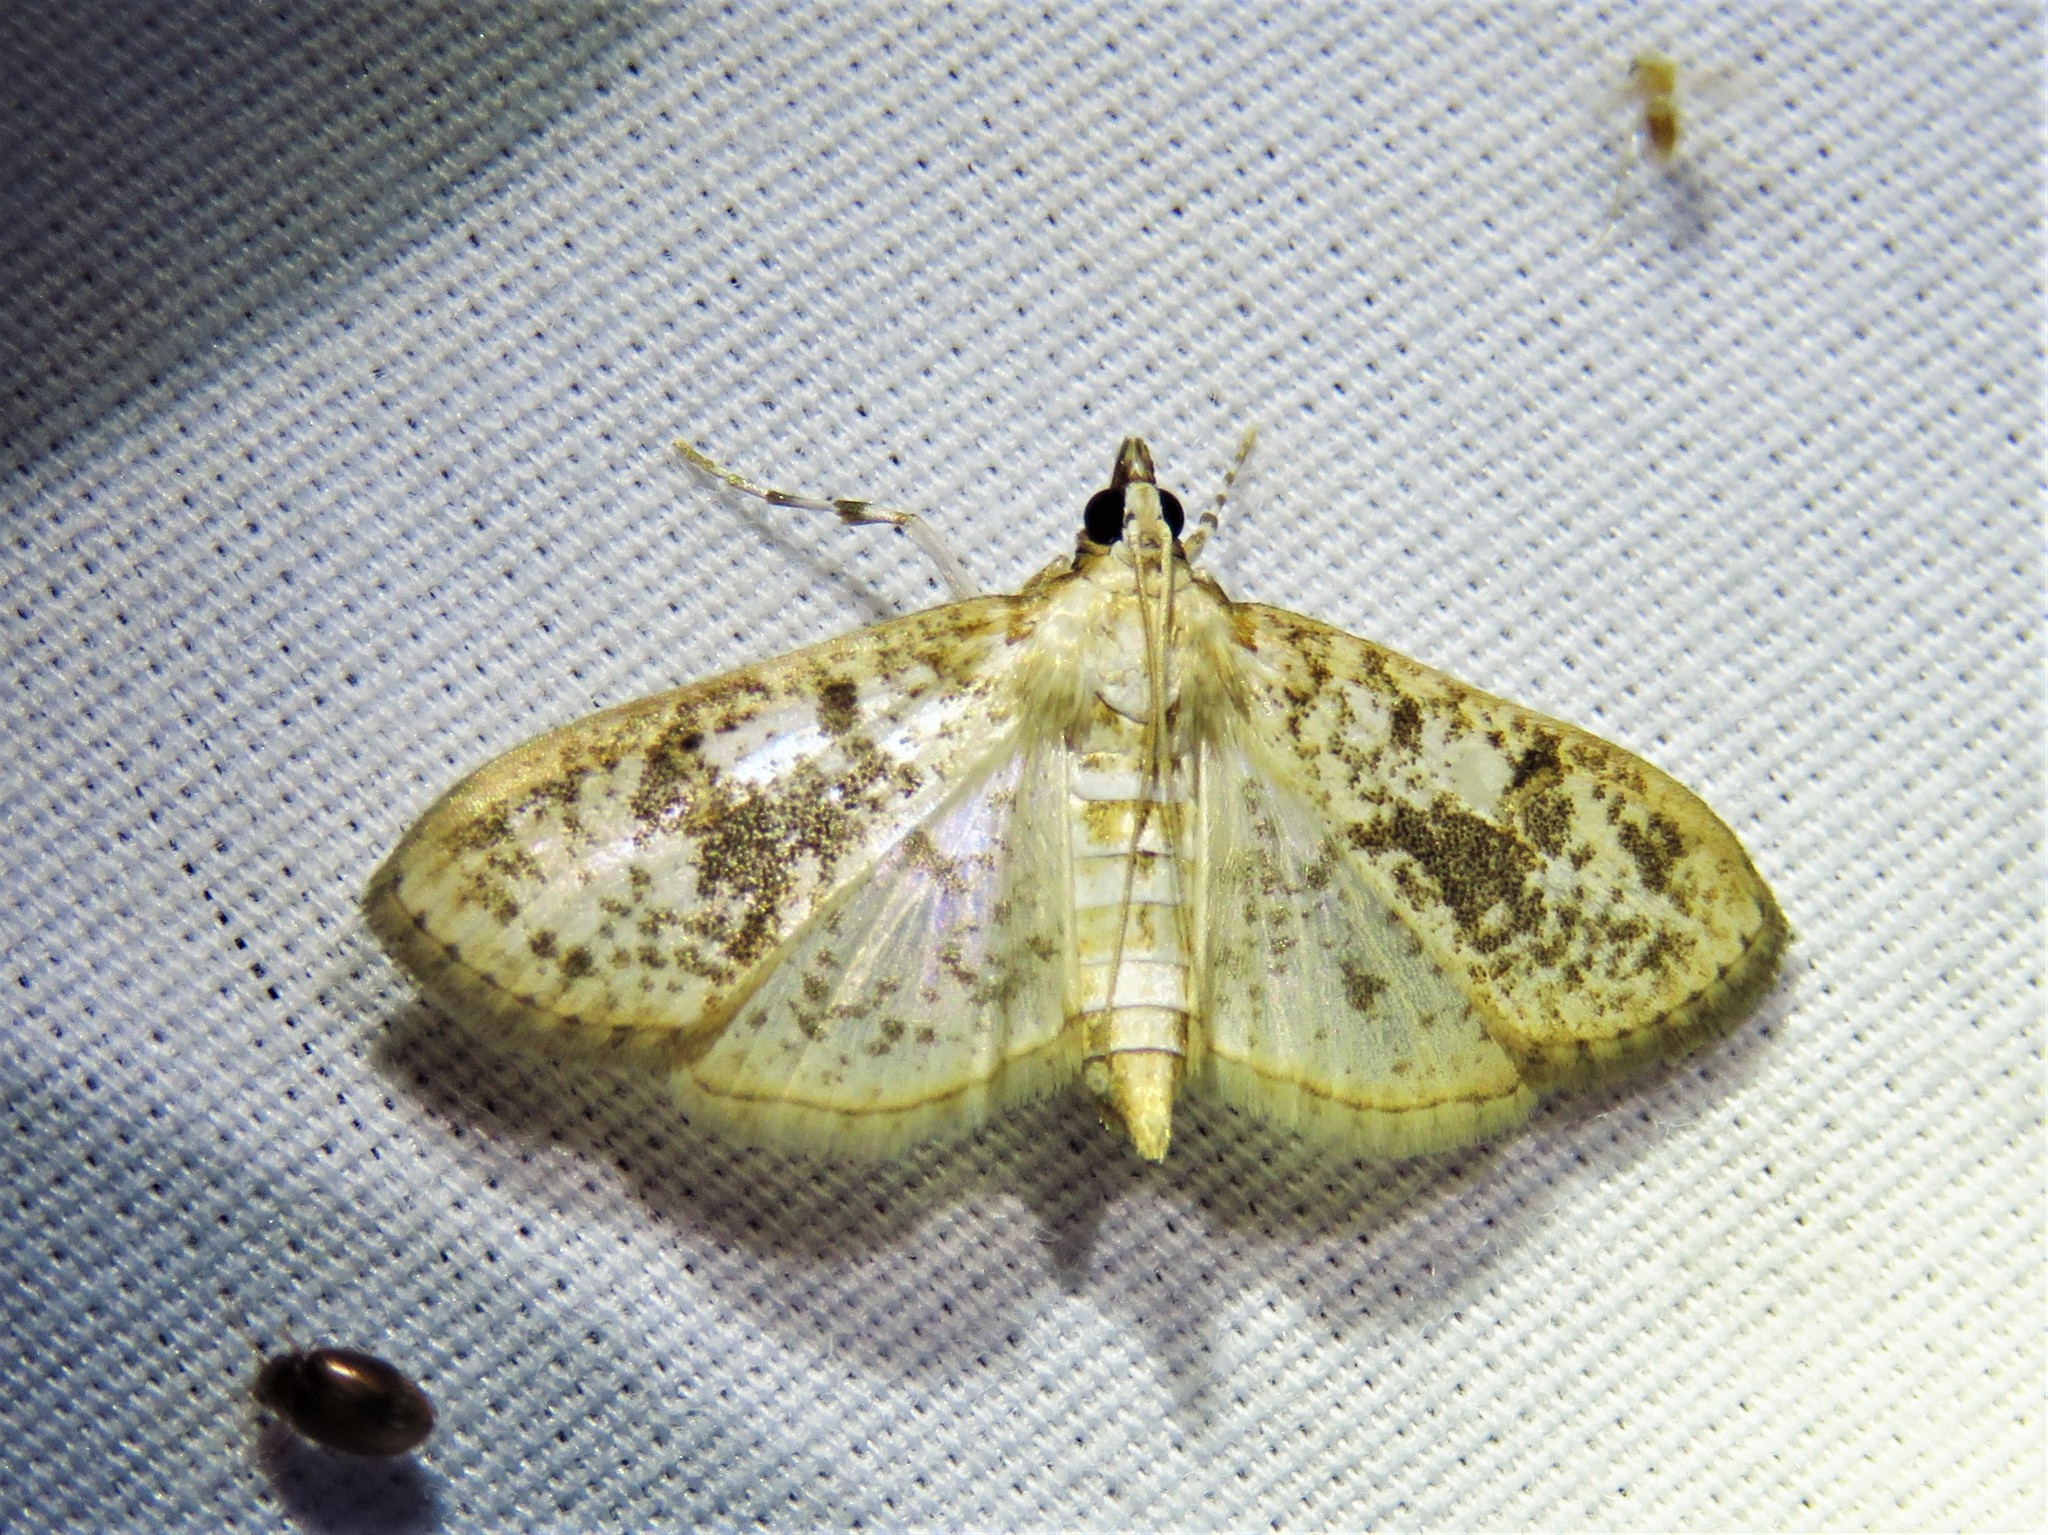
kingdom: Animalia
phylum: Arthropoda
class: Insecta
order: Lepidoptera
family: Crambidae
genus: Palpita
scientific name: Palpita magniferalis
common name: Splendid palpita moth
